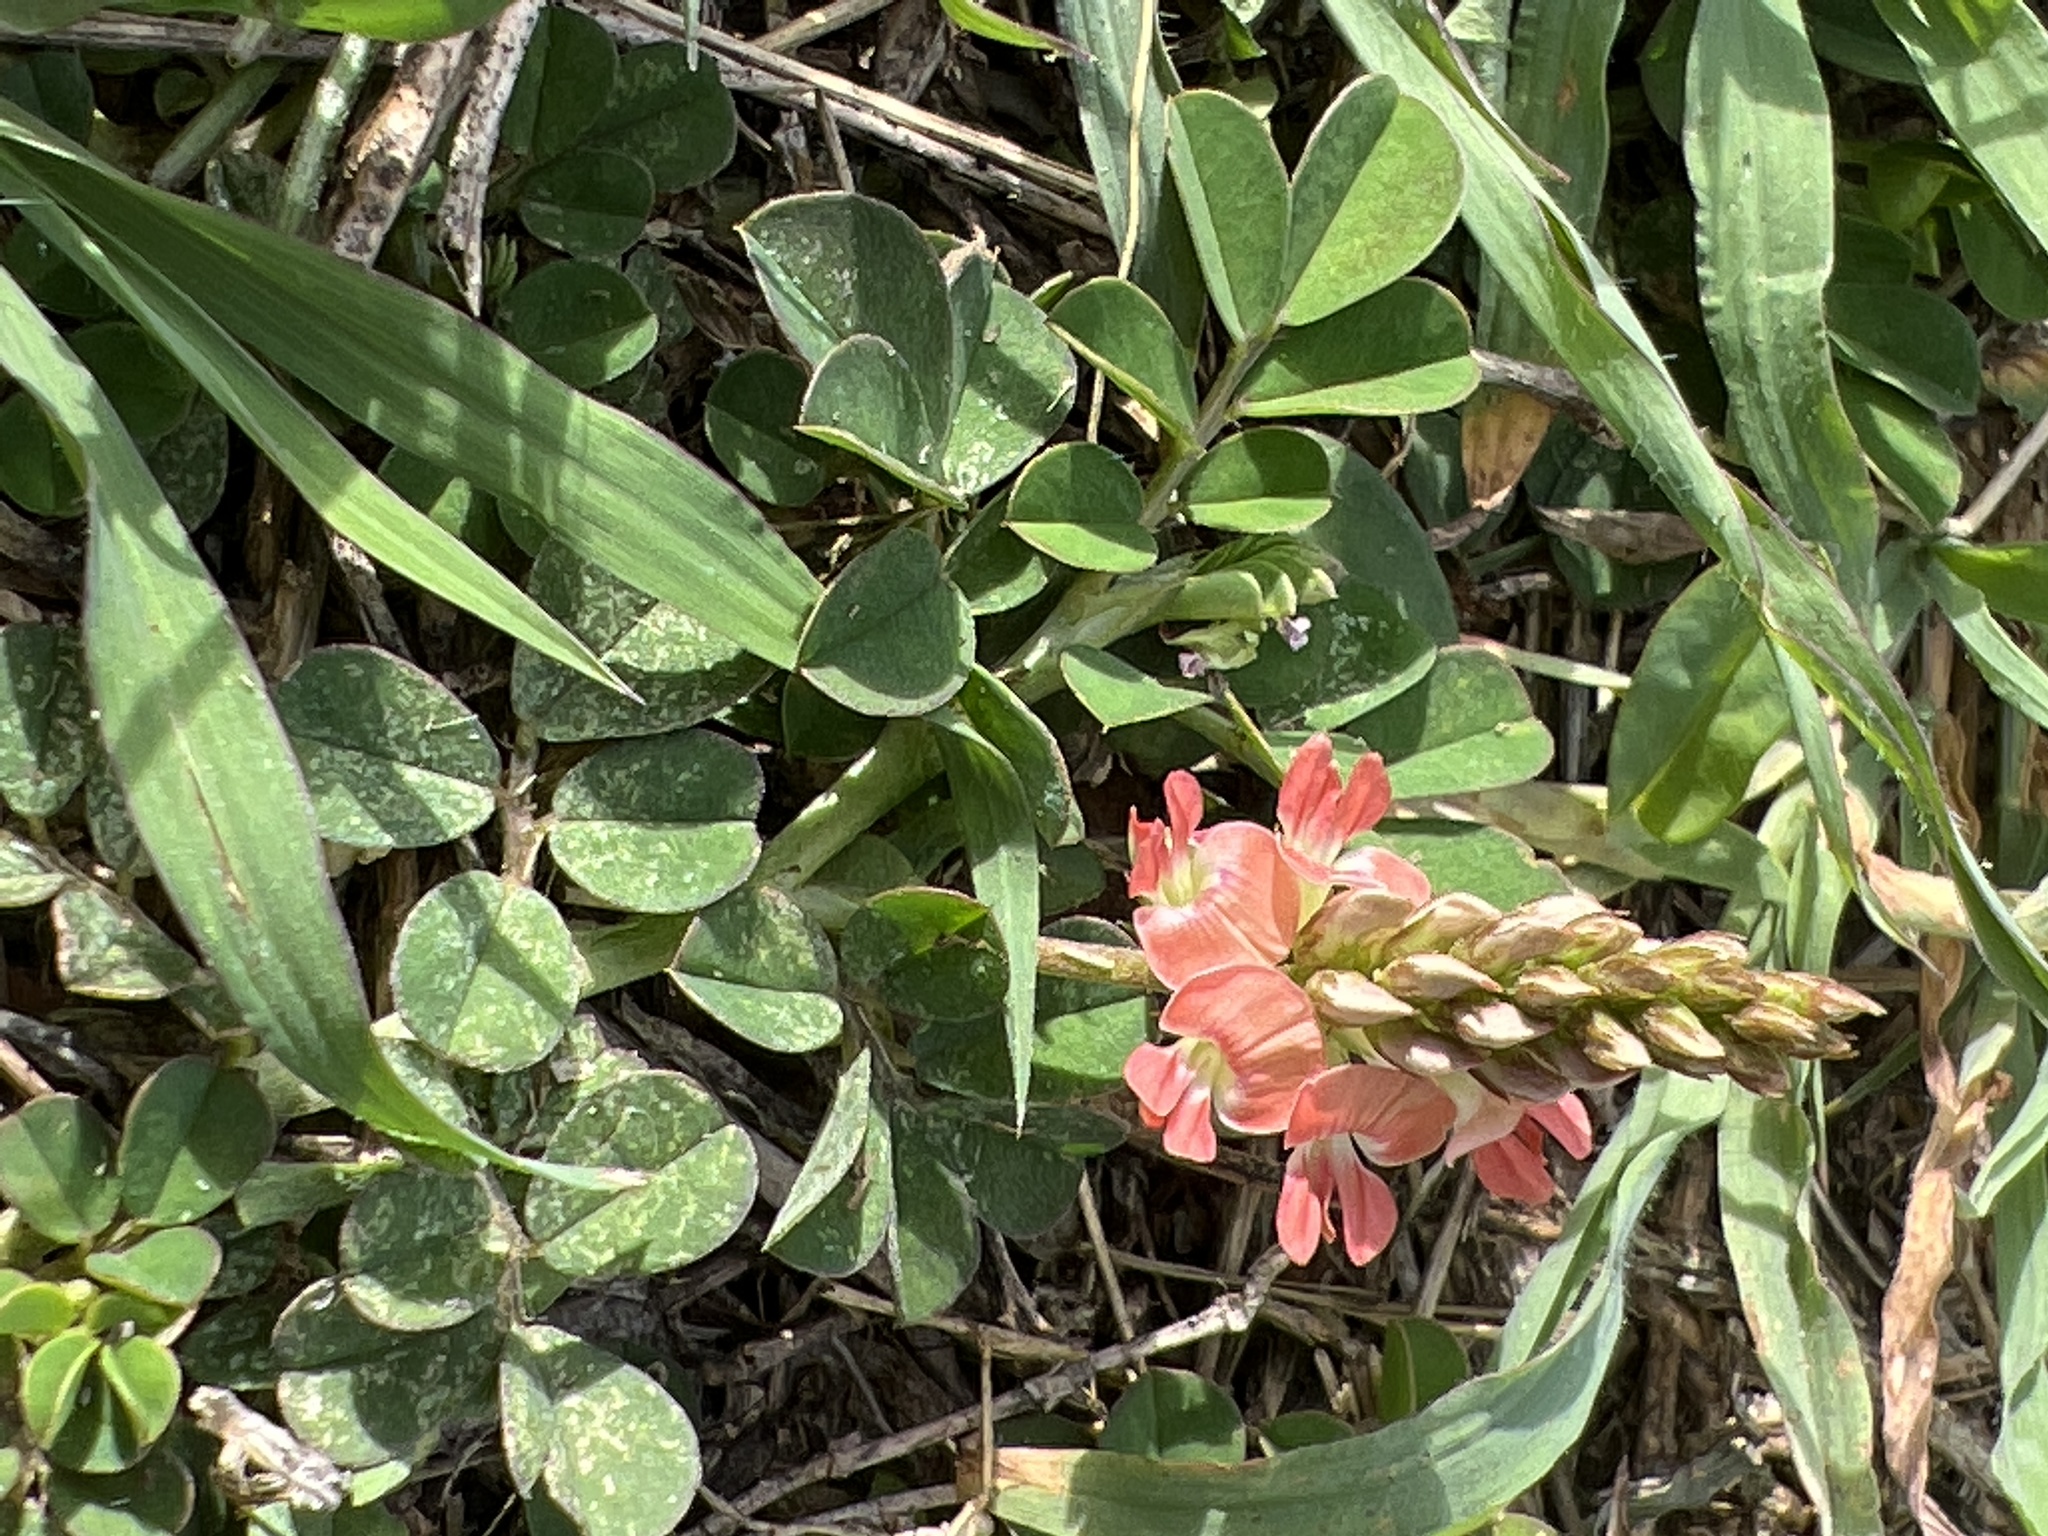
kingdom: Plantae
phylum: Tracheophyta
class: Magnoliopsida
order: Fabales
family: Fabaceae
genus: Indigofera
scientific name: Indigofera spicata
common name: Creeping indigo
